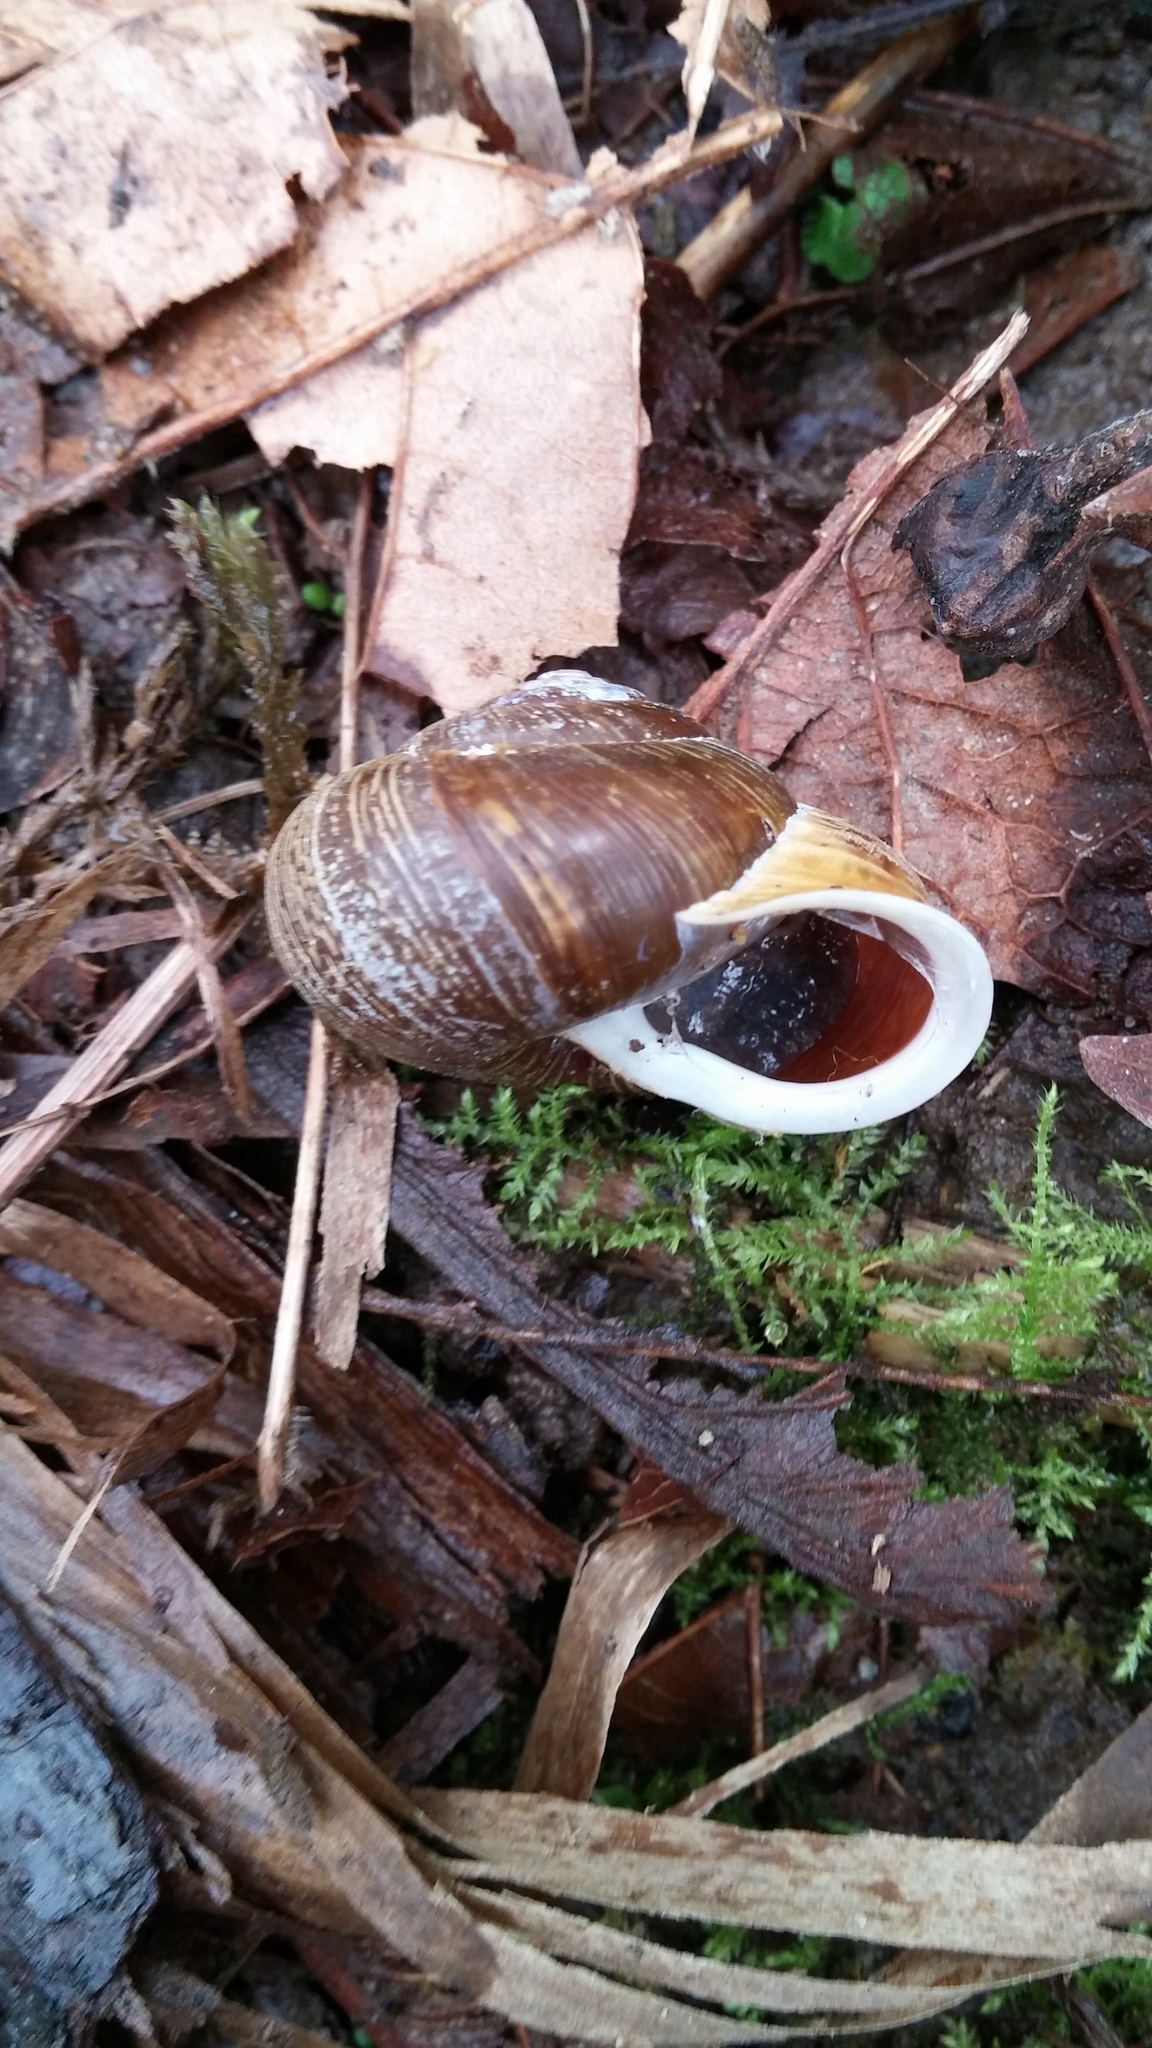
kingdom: Animalia
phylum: Mollusca
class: Gastropoda
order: Stylommatophora
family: Polygyridae
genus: Allogona
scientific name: Allogona townsendiana
